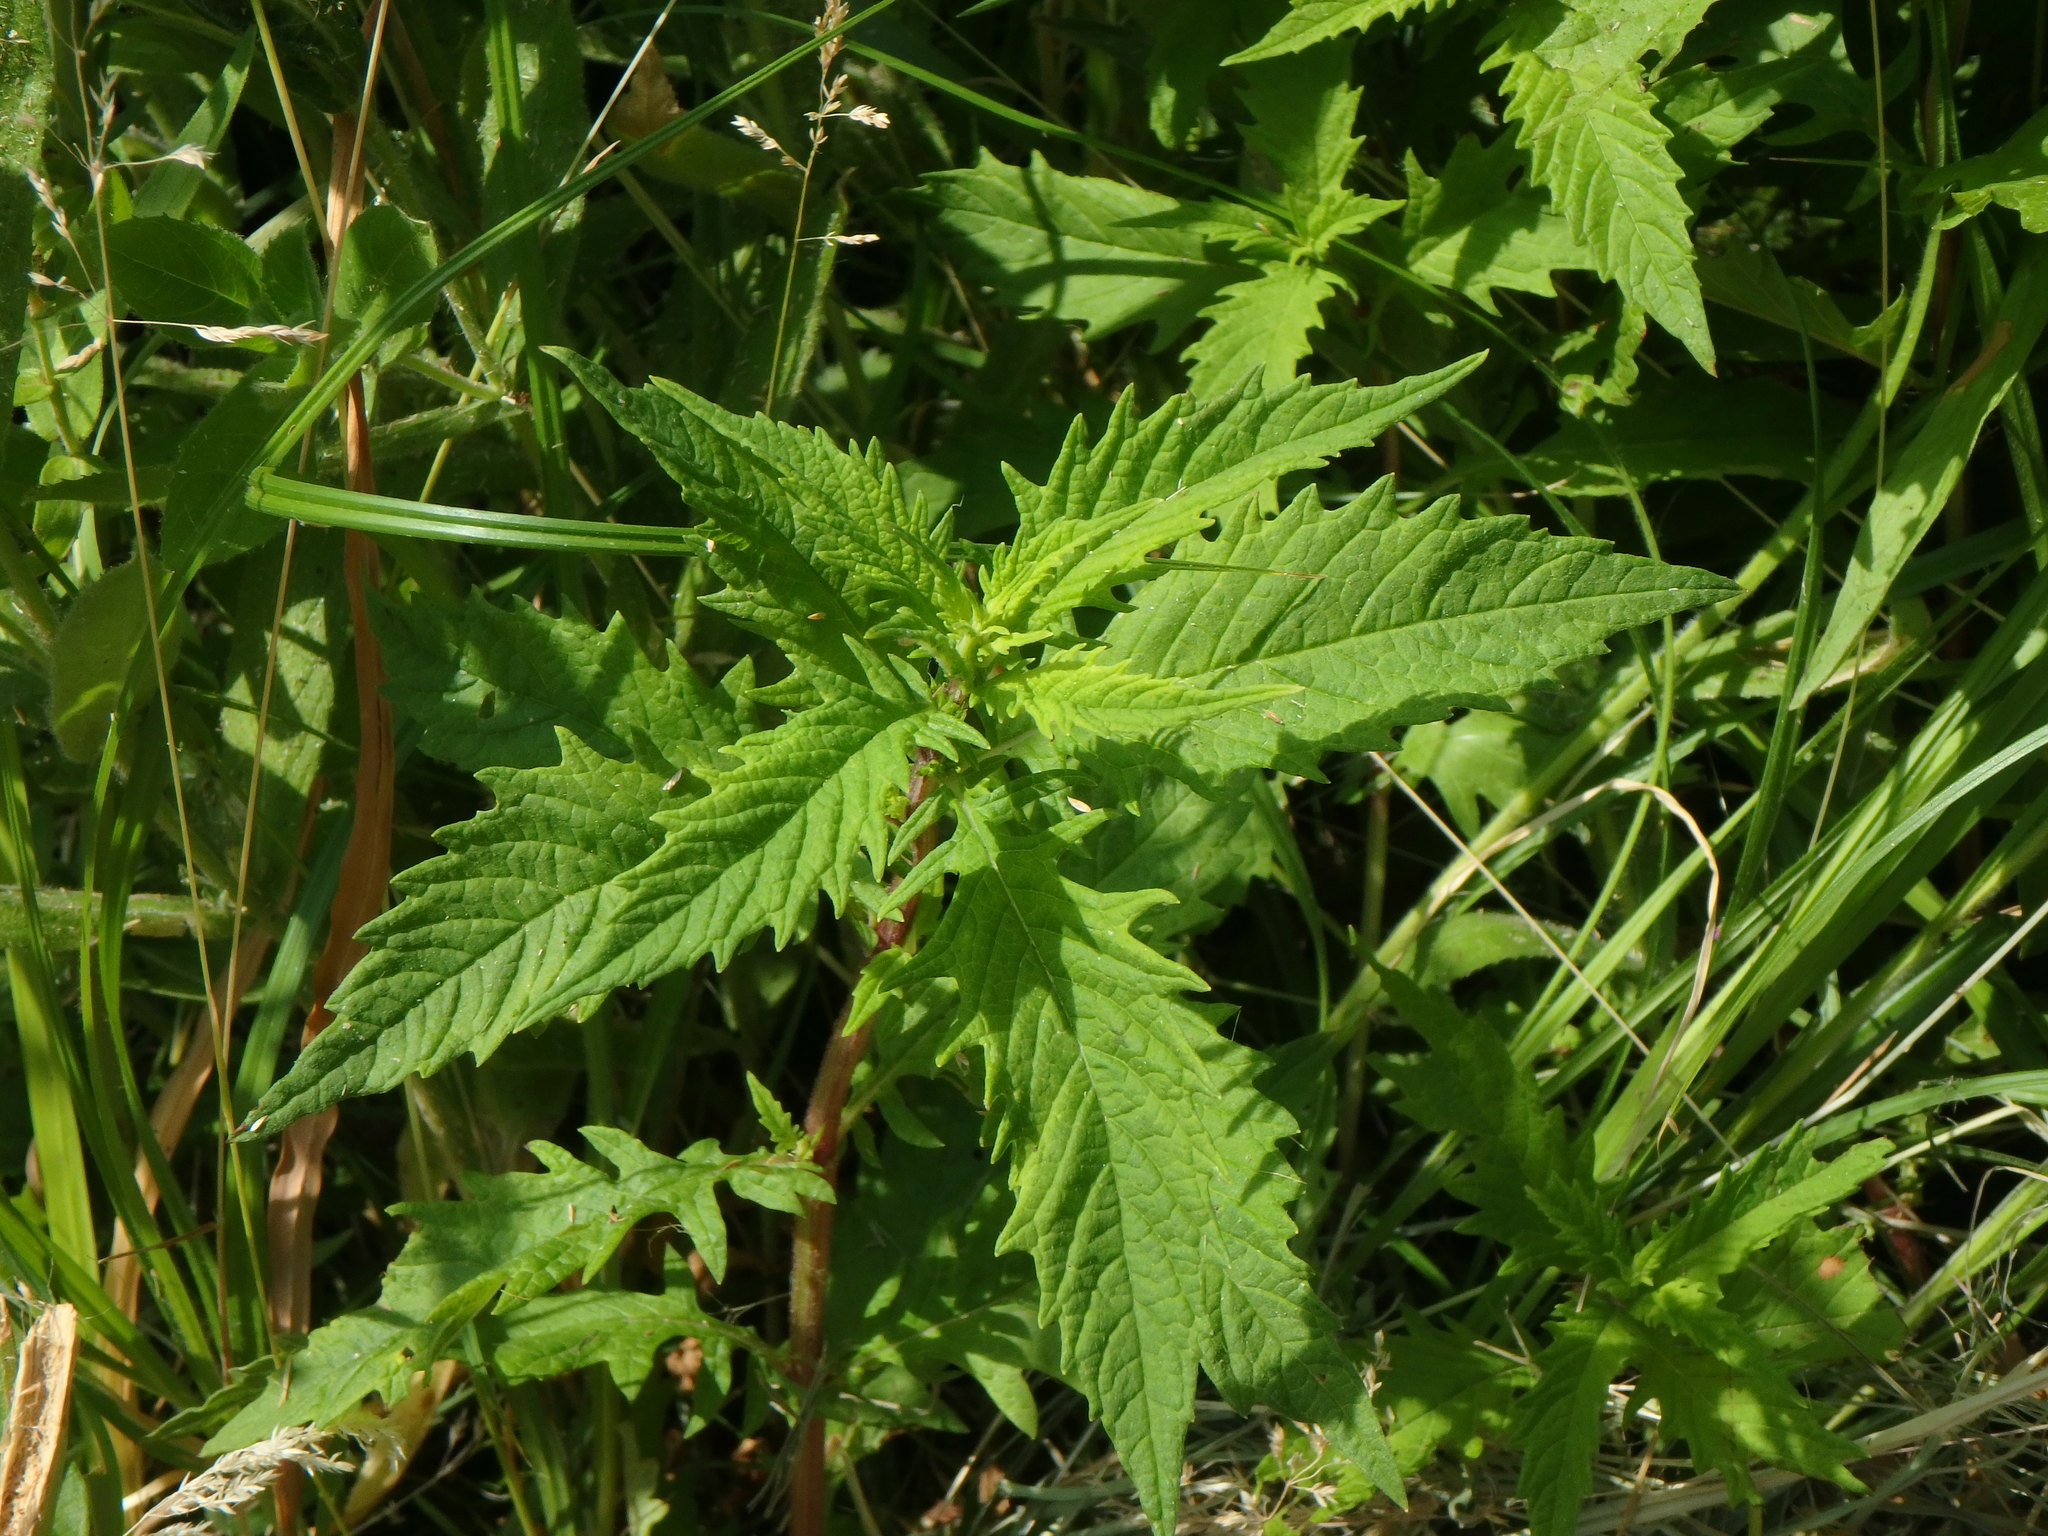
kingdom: Plantae
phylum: Tracheophyta
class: Magnoliopsida
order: Lamiales
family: Lamiaceae
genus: Lycopus
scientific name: Lycopus europaeus
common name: European bugleweed
